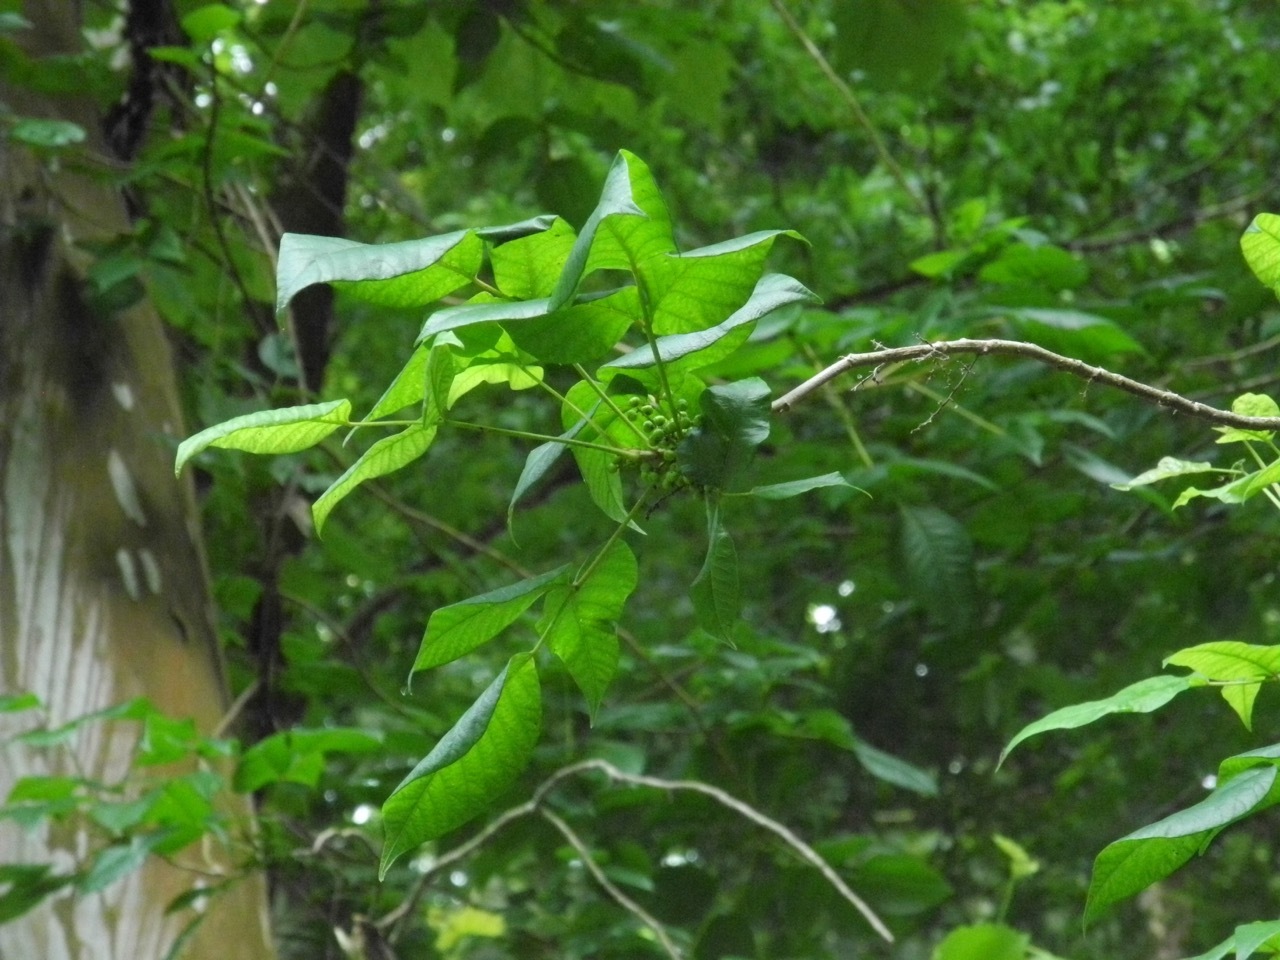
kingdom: Plantae
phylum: Tracheophyta
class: Magnoliopsida
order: Sapindales
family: Anacardiaceae
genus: Toxicodendron
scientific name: Toxicodendron radicans
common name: Poison ivy
